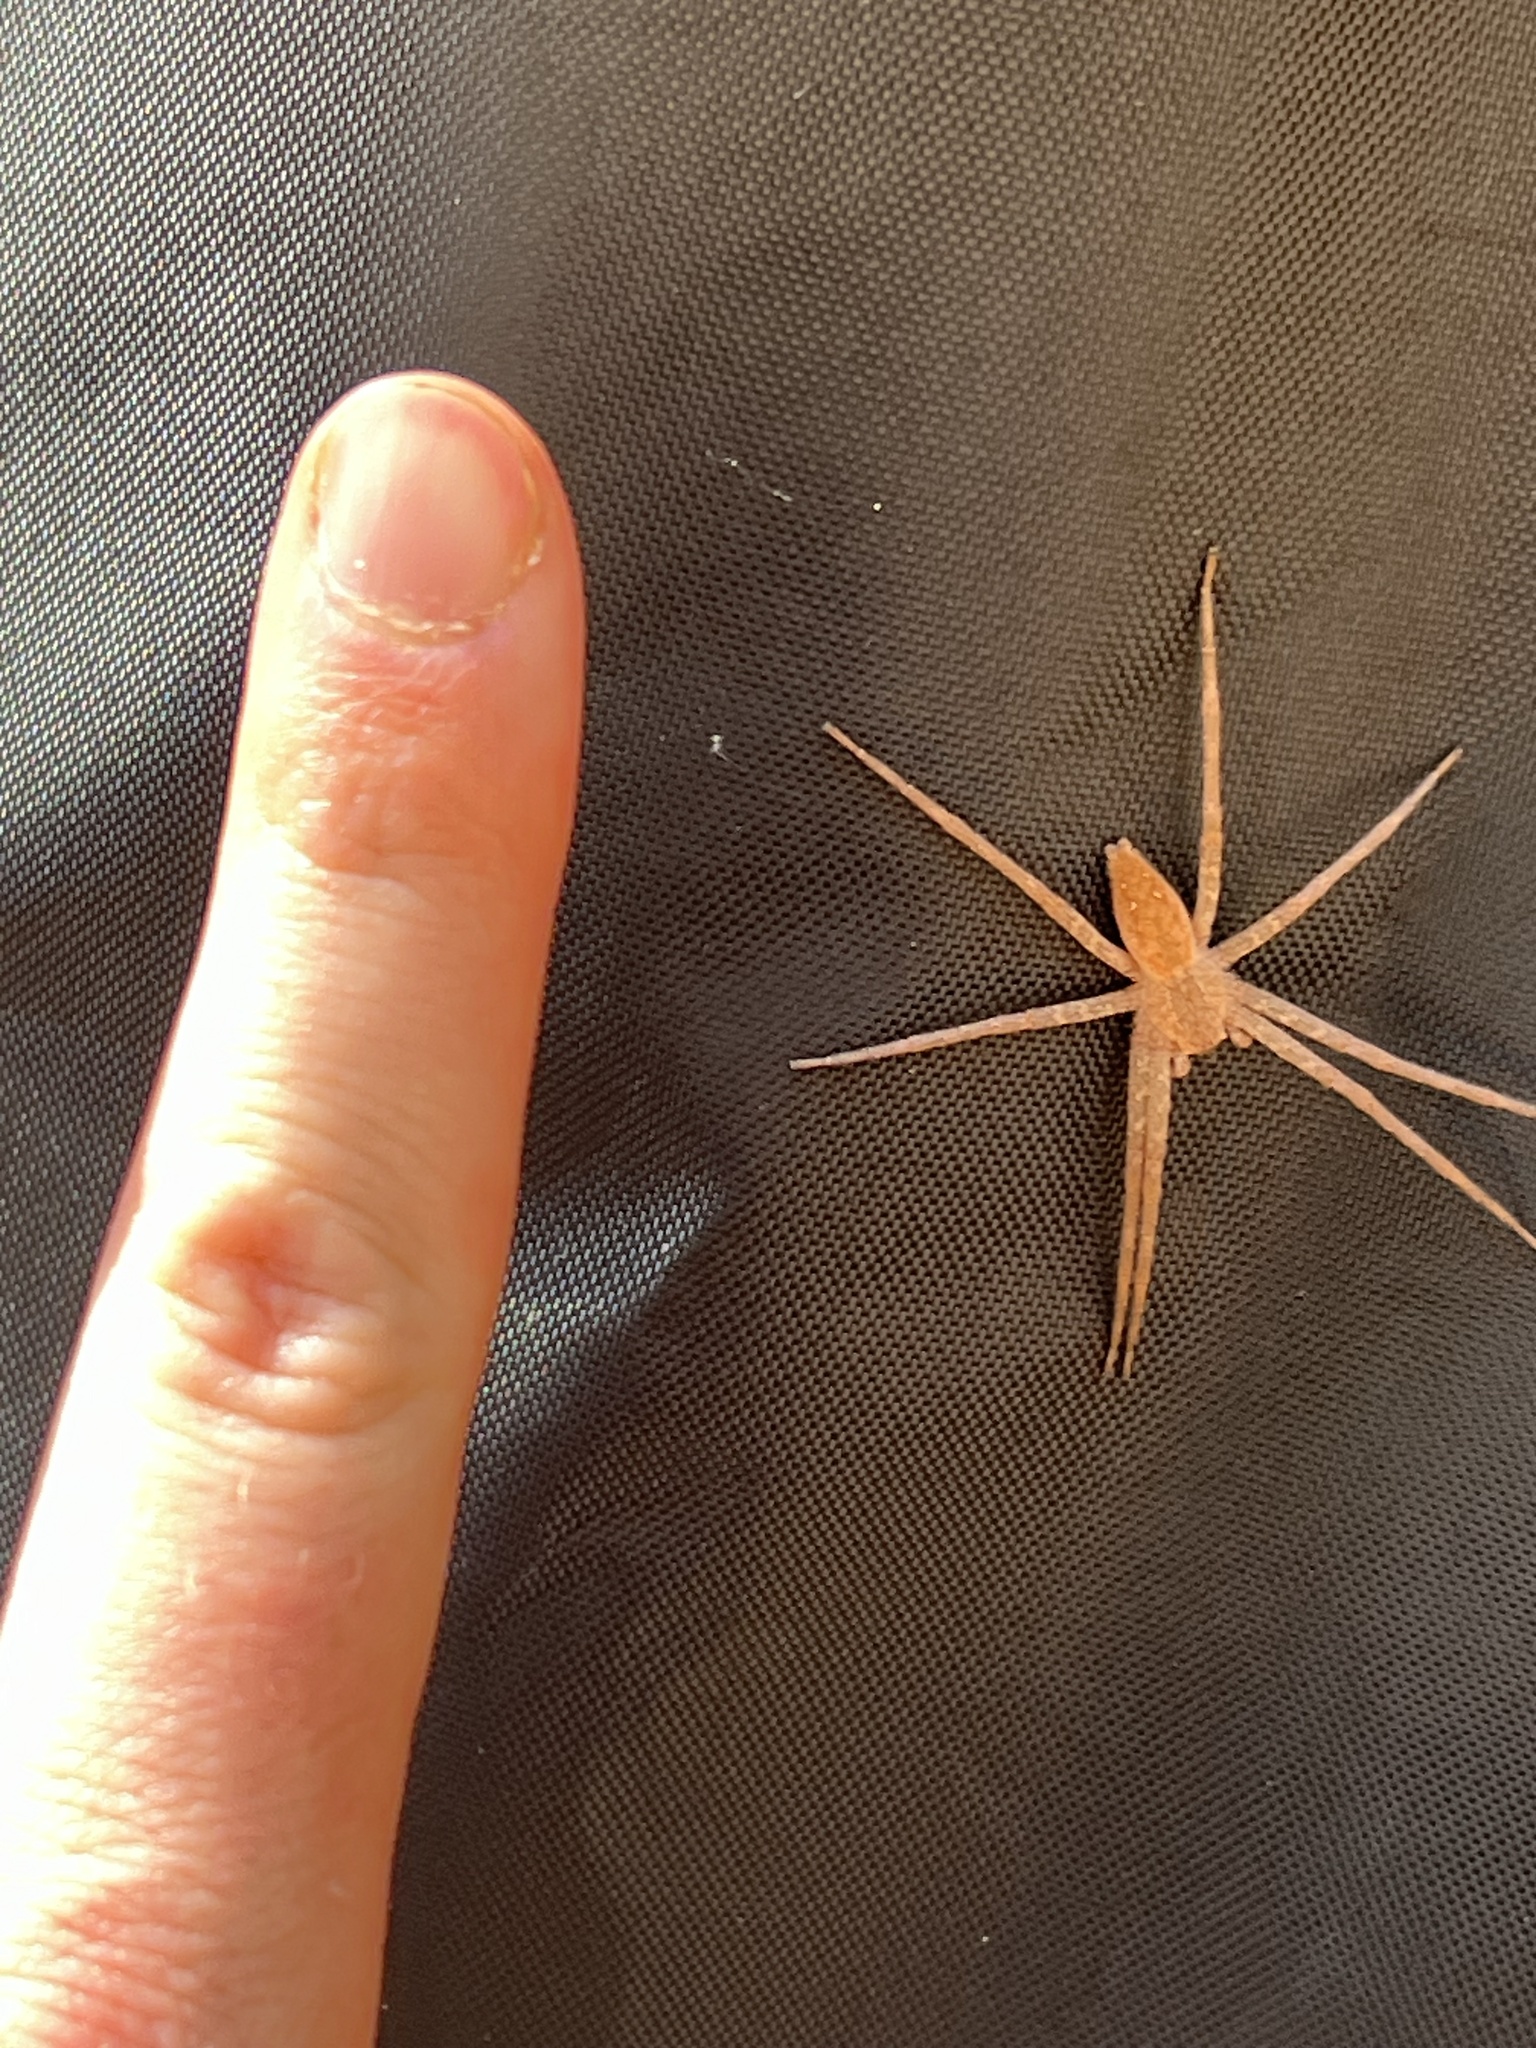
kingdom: Animalia
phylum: Arthropoda
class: Arachnida
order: Araneae
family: Pisauridae
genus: Pisaurina
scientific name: Pisaurina mira
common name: American nursery web spider
